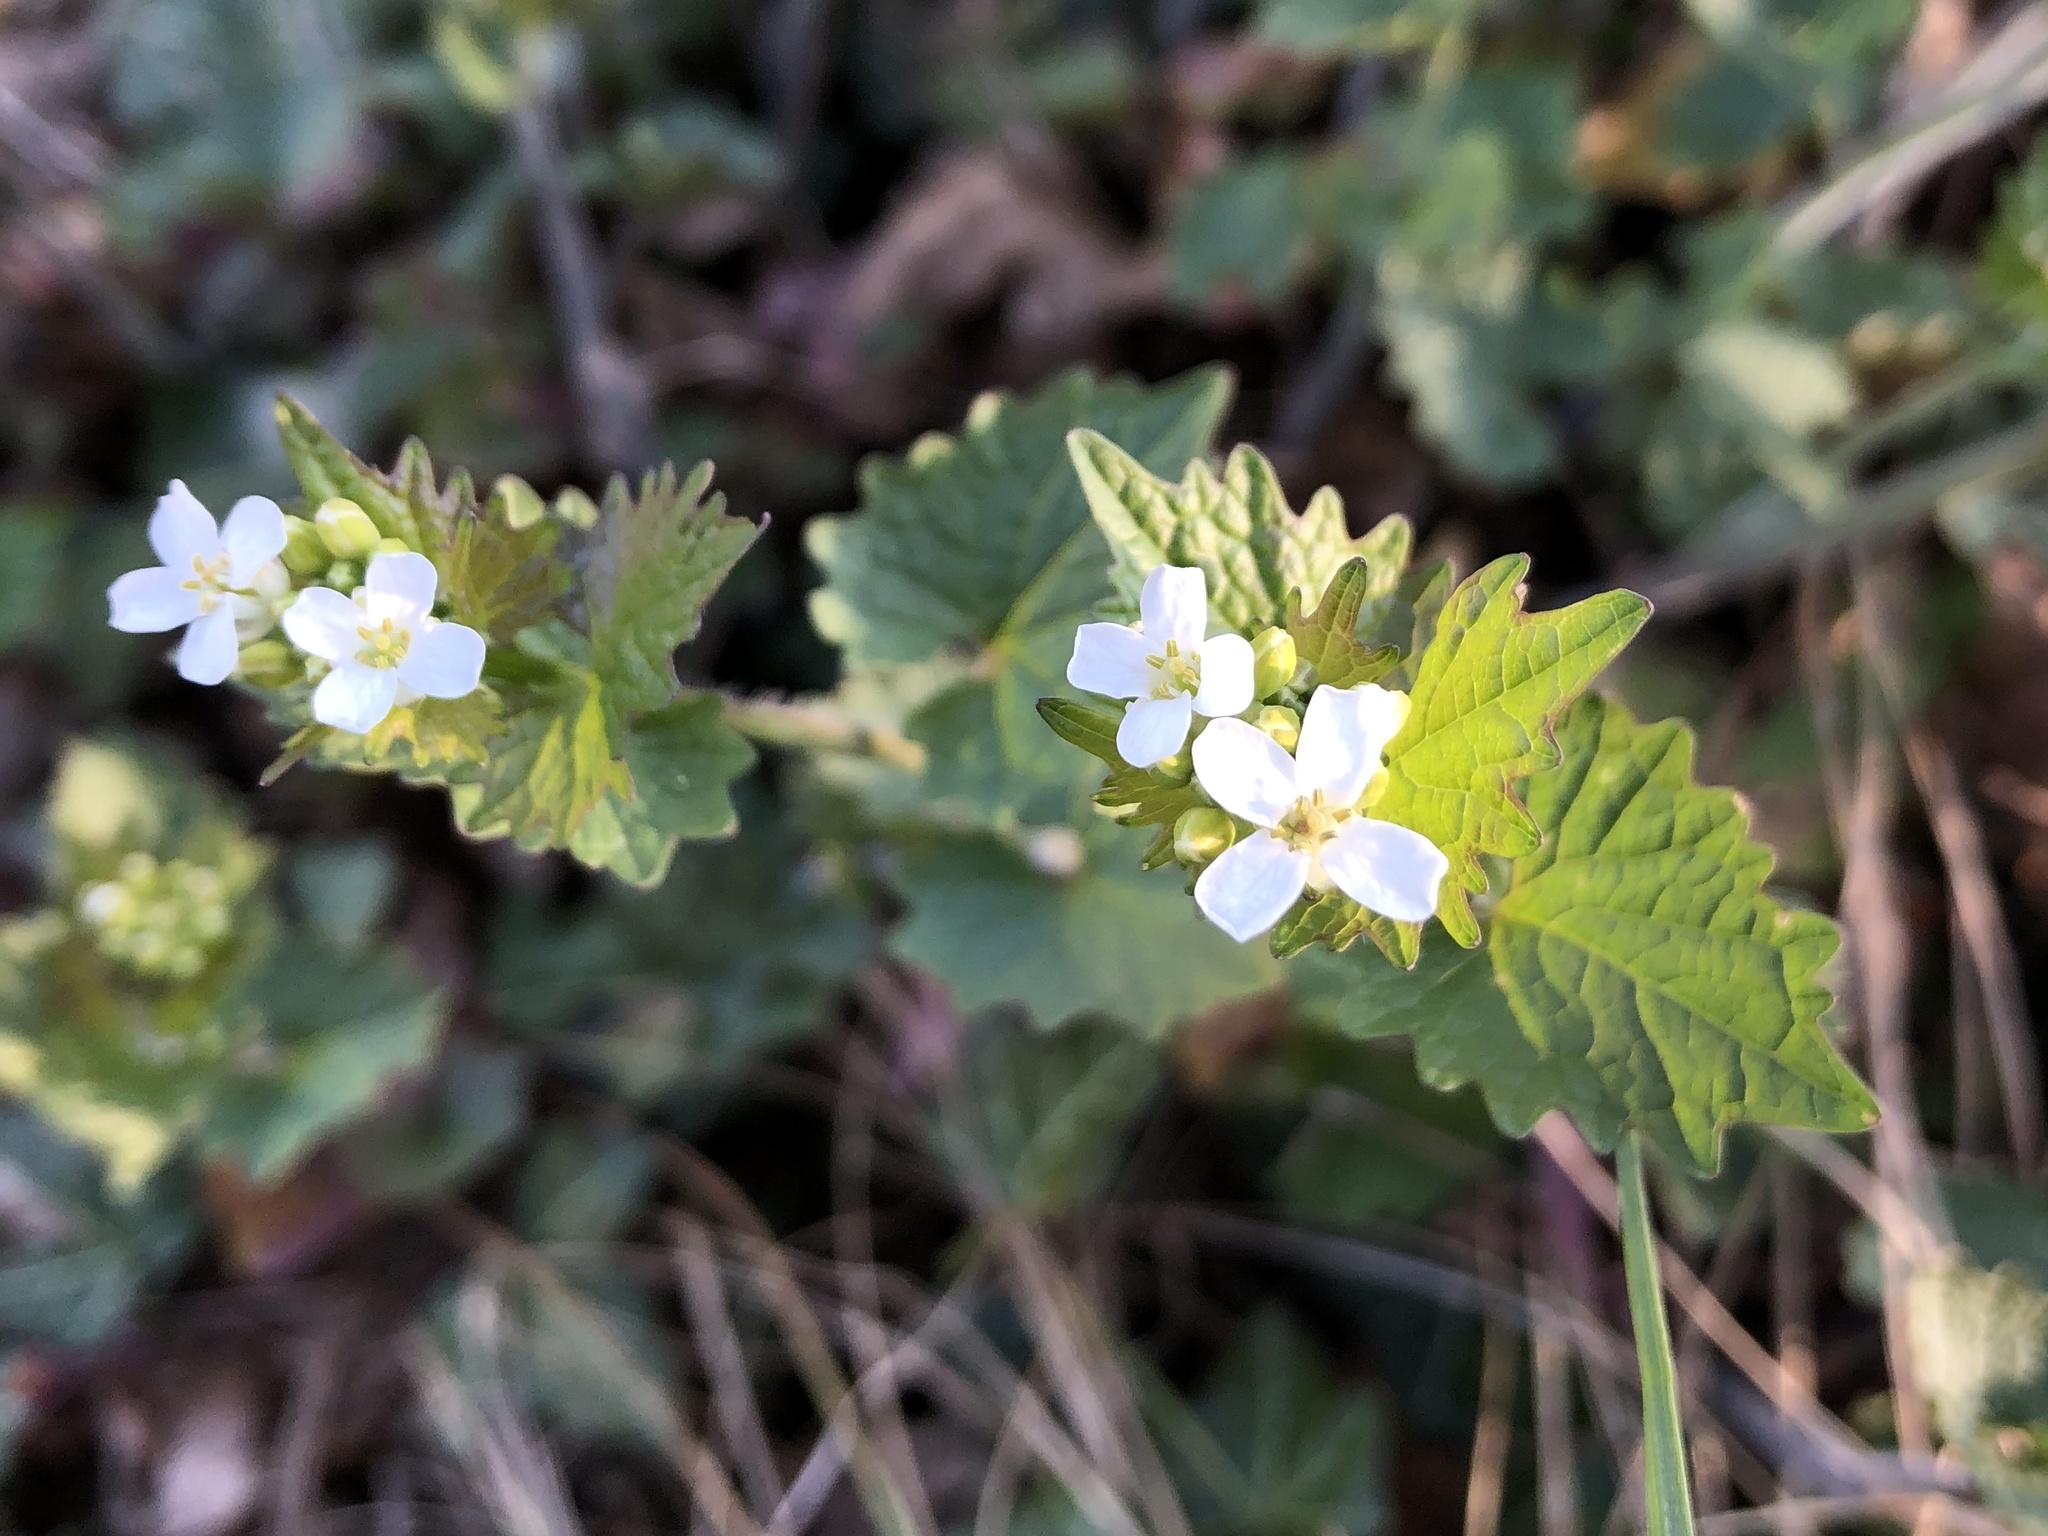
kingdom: Plantae
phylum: Tracheophyta
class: Magnoliopsida
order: Brassicales
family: Brassicaceae
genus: Alliaria
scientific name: Alliaria petiolata
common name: Garlic mustard
